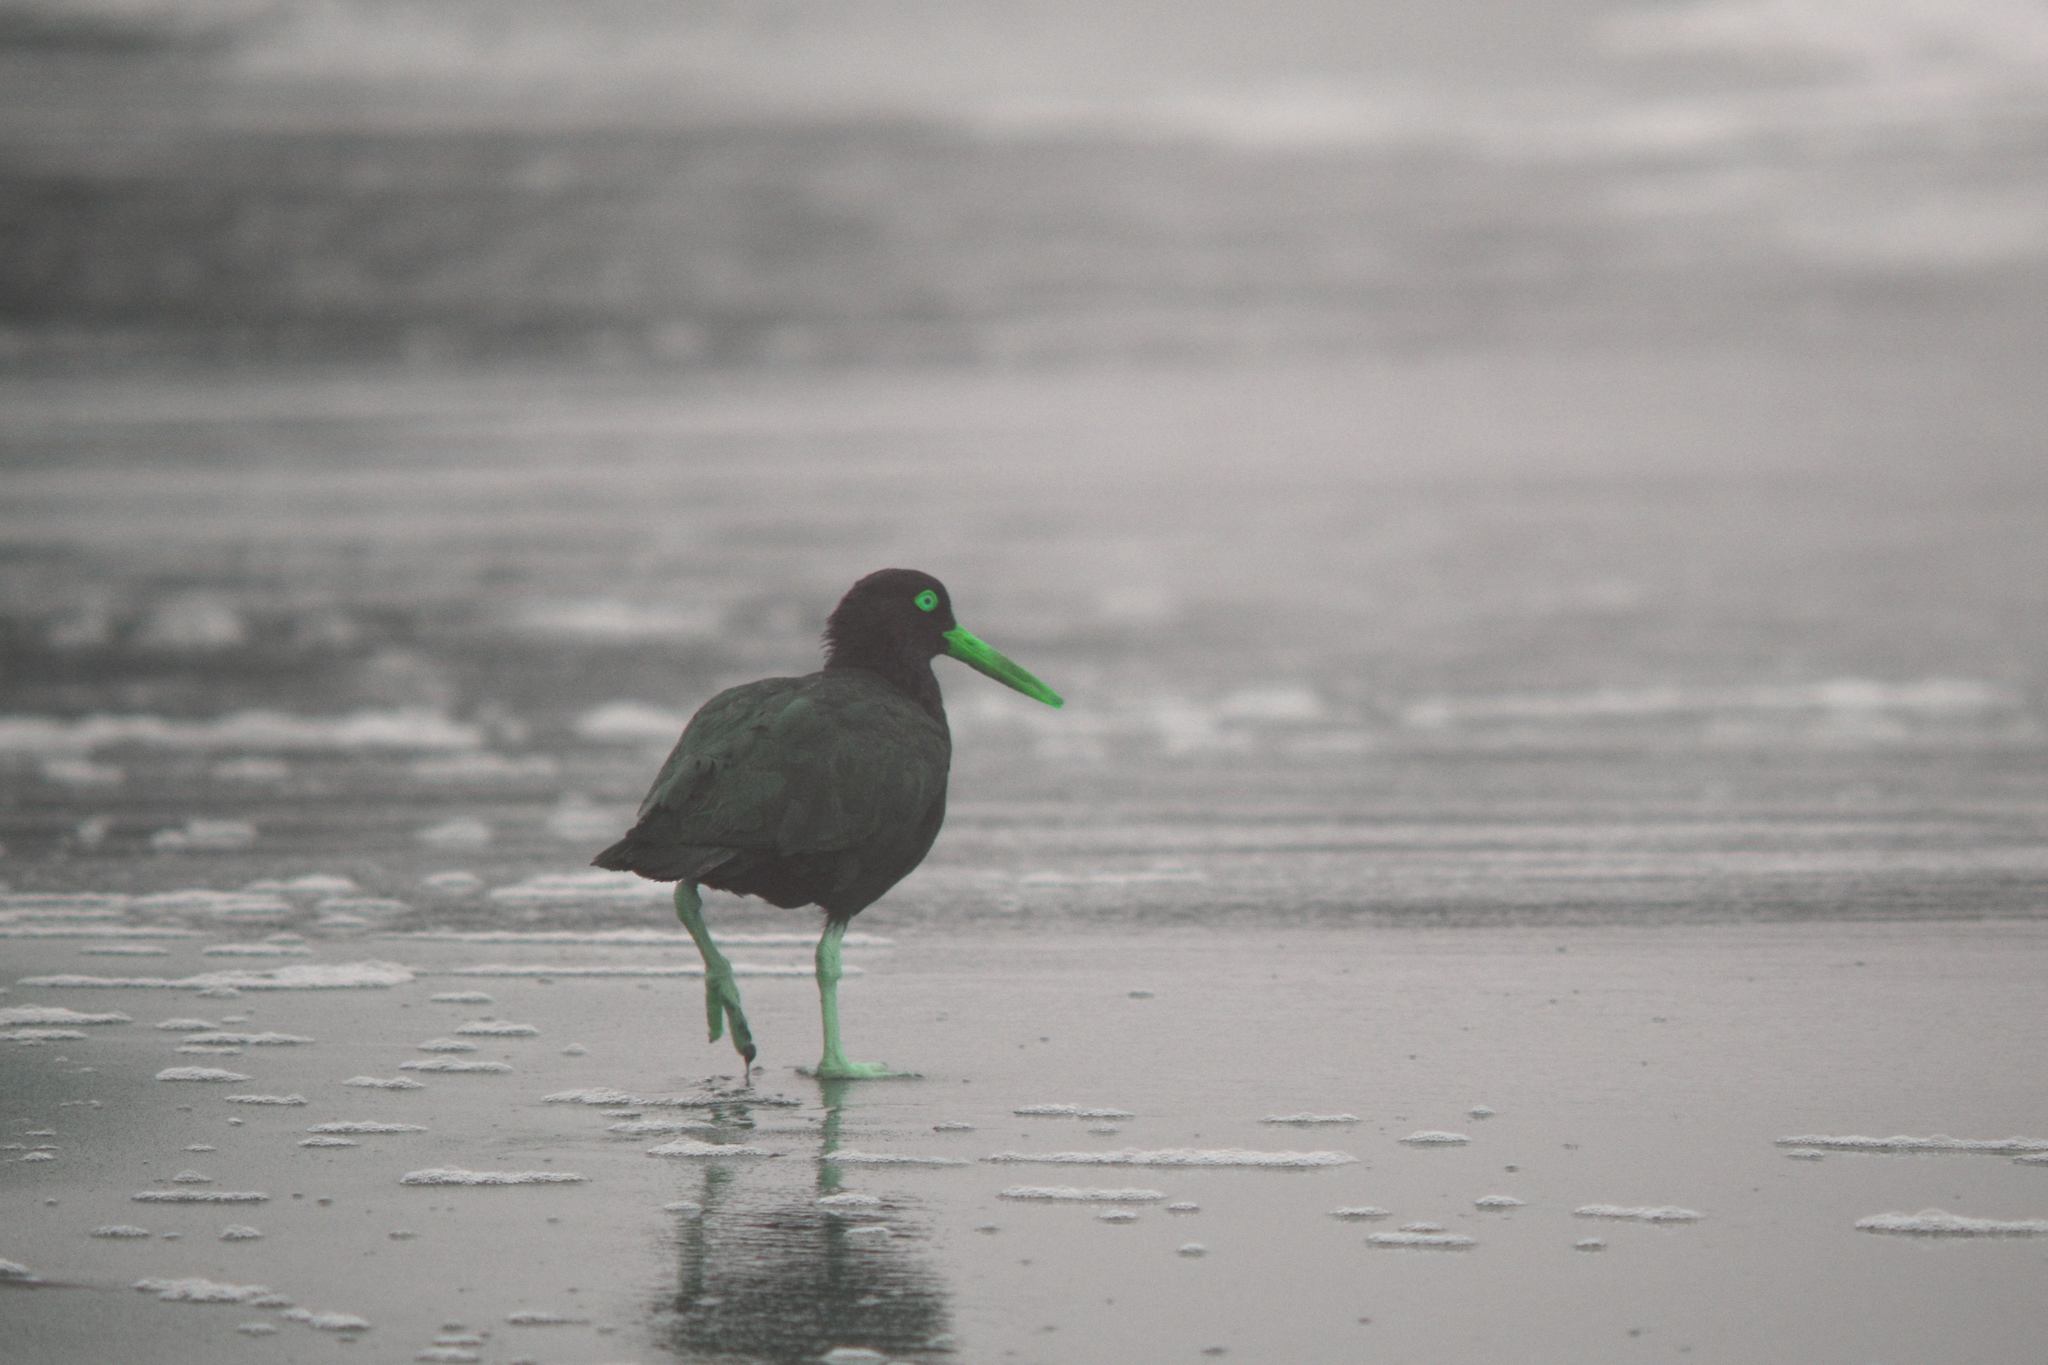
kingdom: Animalia
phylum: Chordata
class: Aves
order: Charadriiformes
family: Haematopodidae
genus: Haematopus
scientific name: Haematopus bachmani
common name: Black oystercatcher
